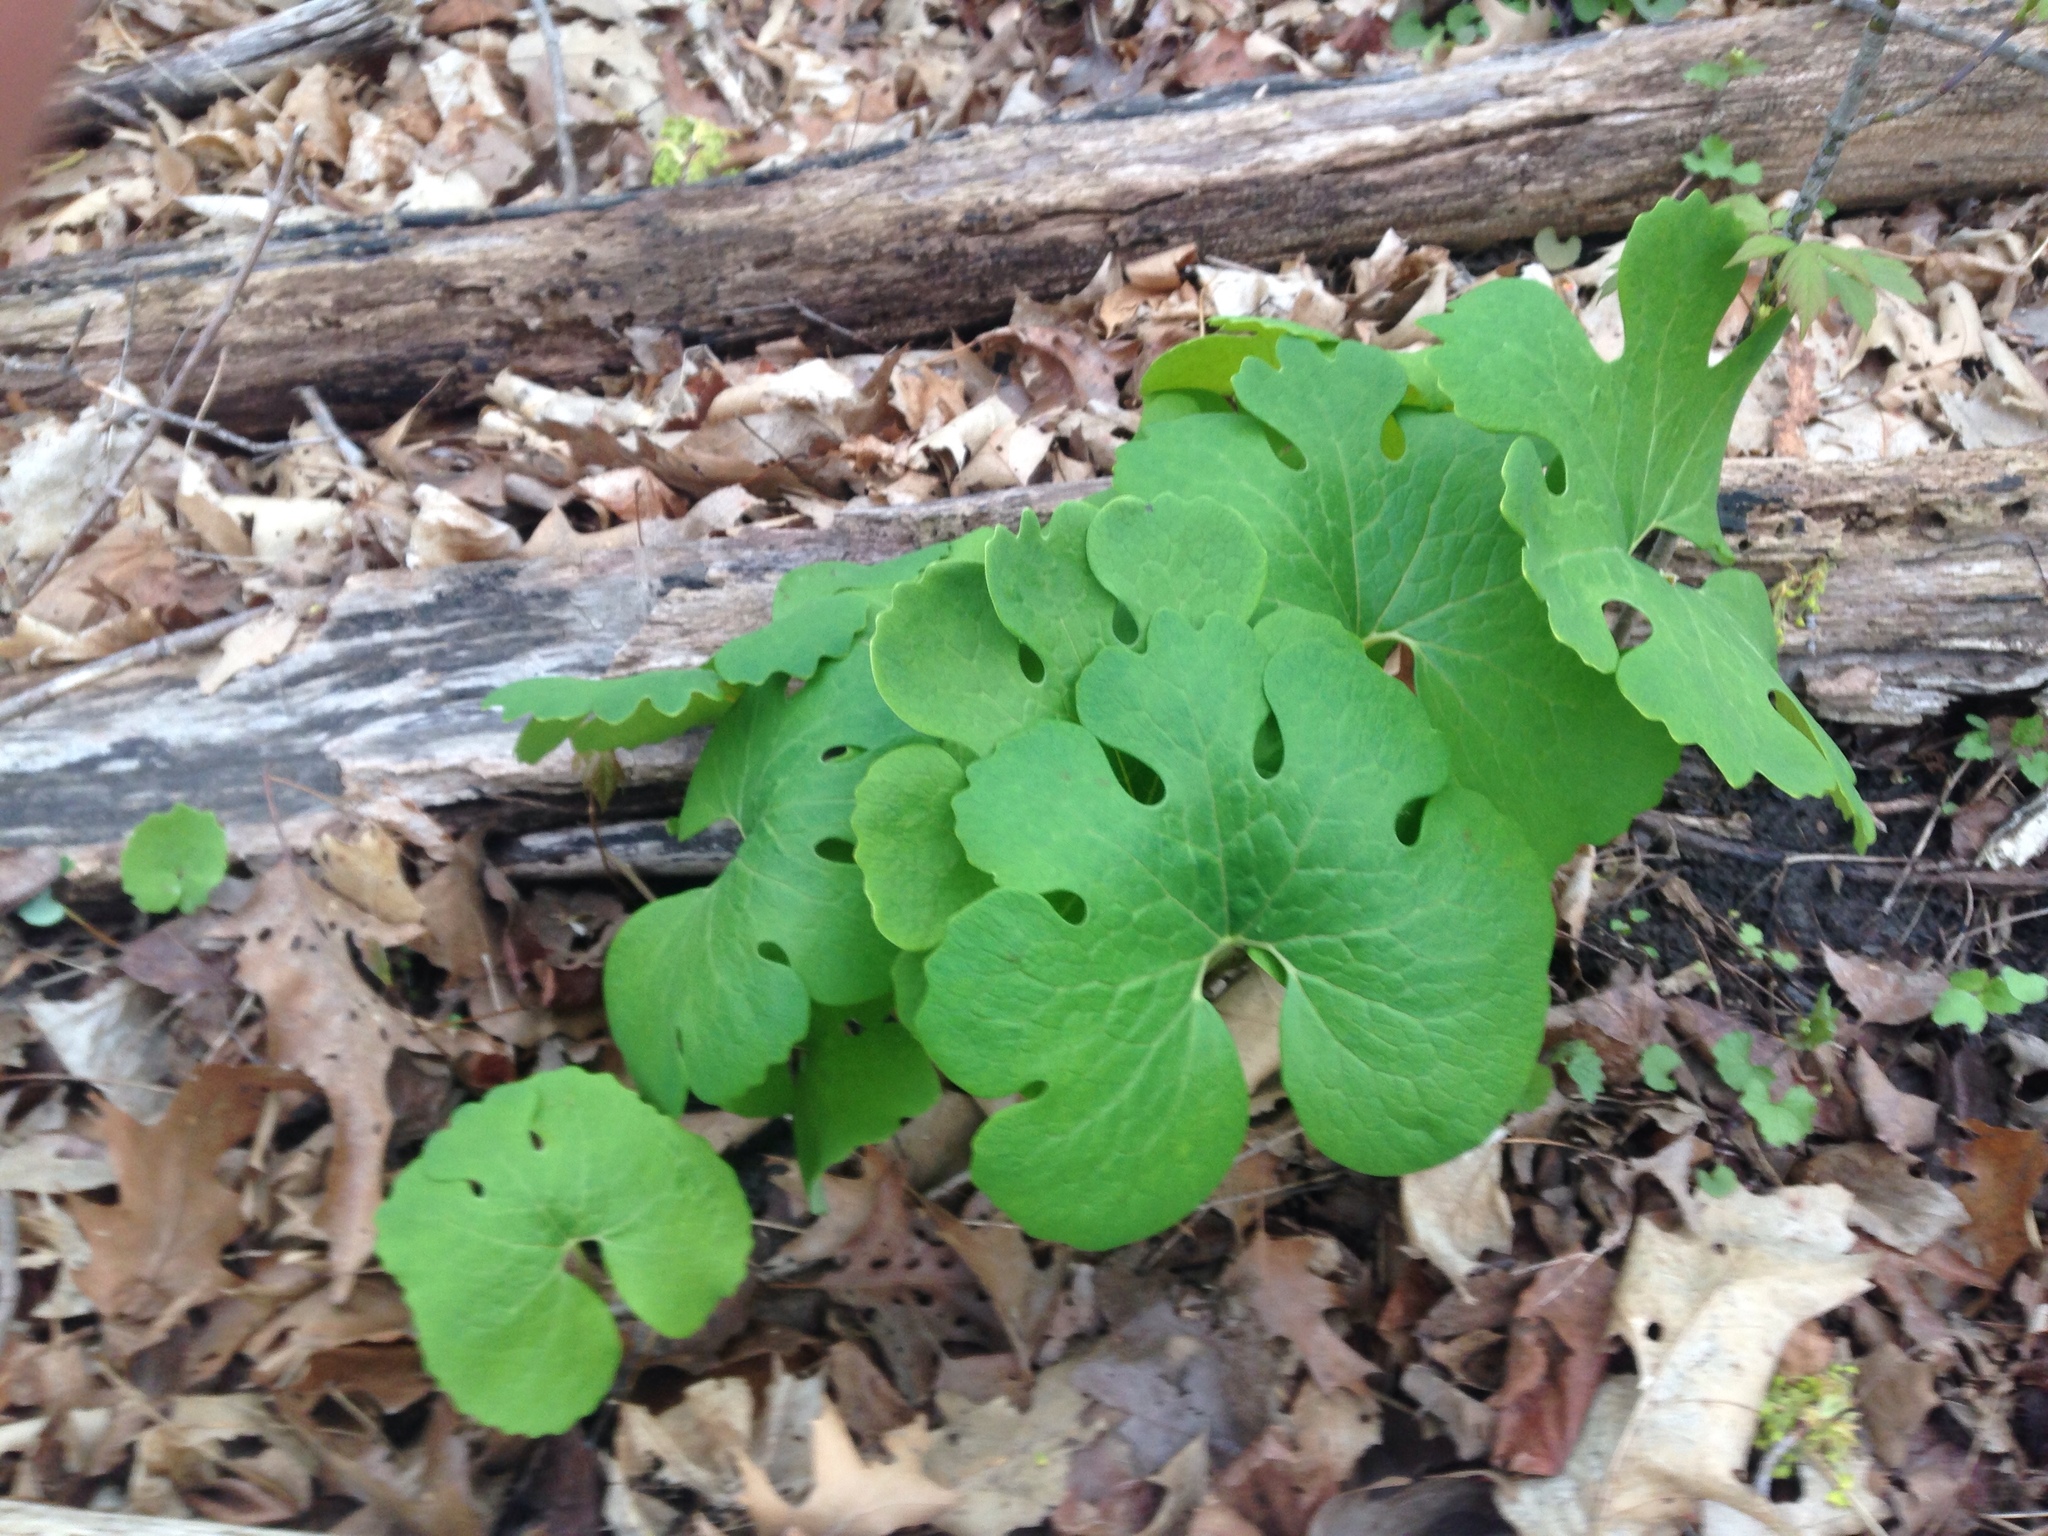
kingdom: Plantae
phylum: Tracheophyta
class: Magnoliopsida
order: Ranunculales
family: Papaveraceae
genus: Sanguinaria
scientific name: Sanguinaria canadensis
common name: Bloodroot
